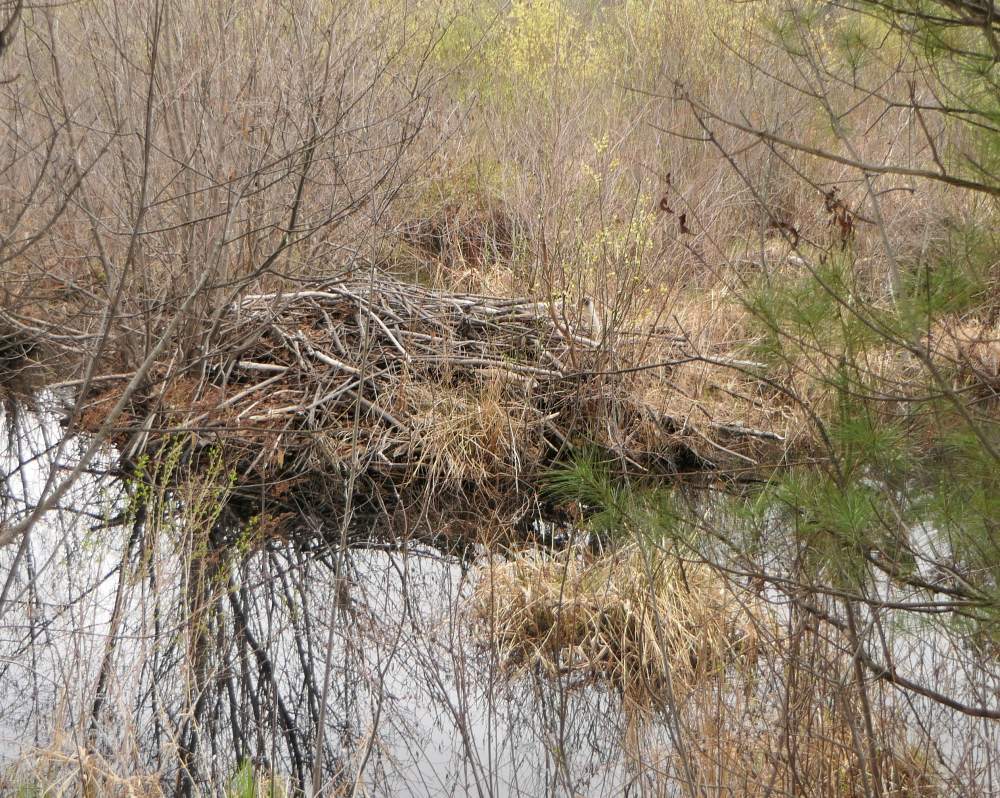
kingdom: Animalia
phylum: Chordata
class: Mammalia
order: Rodentia
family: Castoridae
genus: Castor
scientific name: Castor canadensis
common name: American beaver
